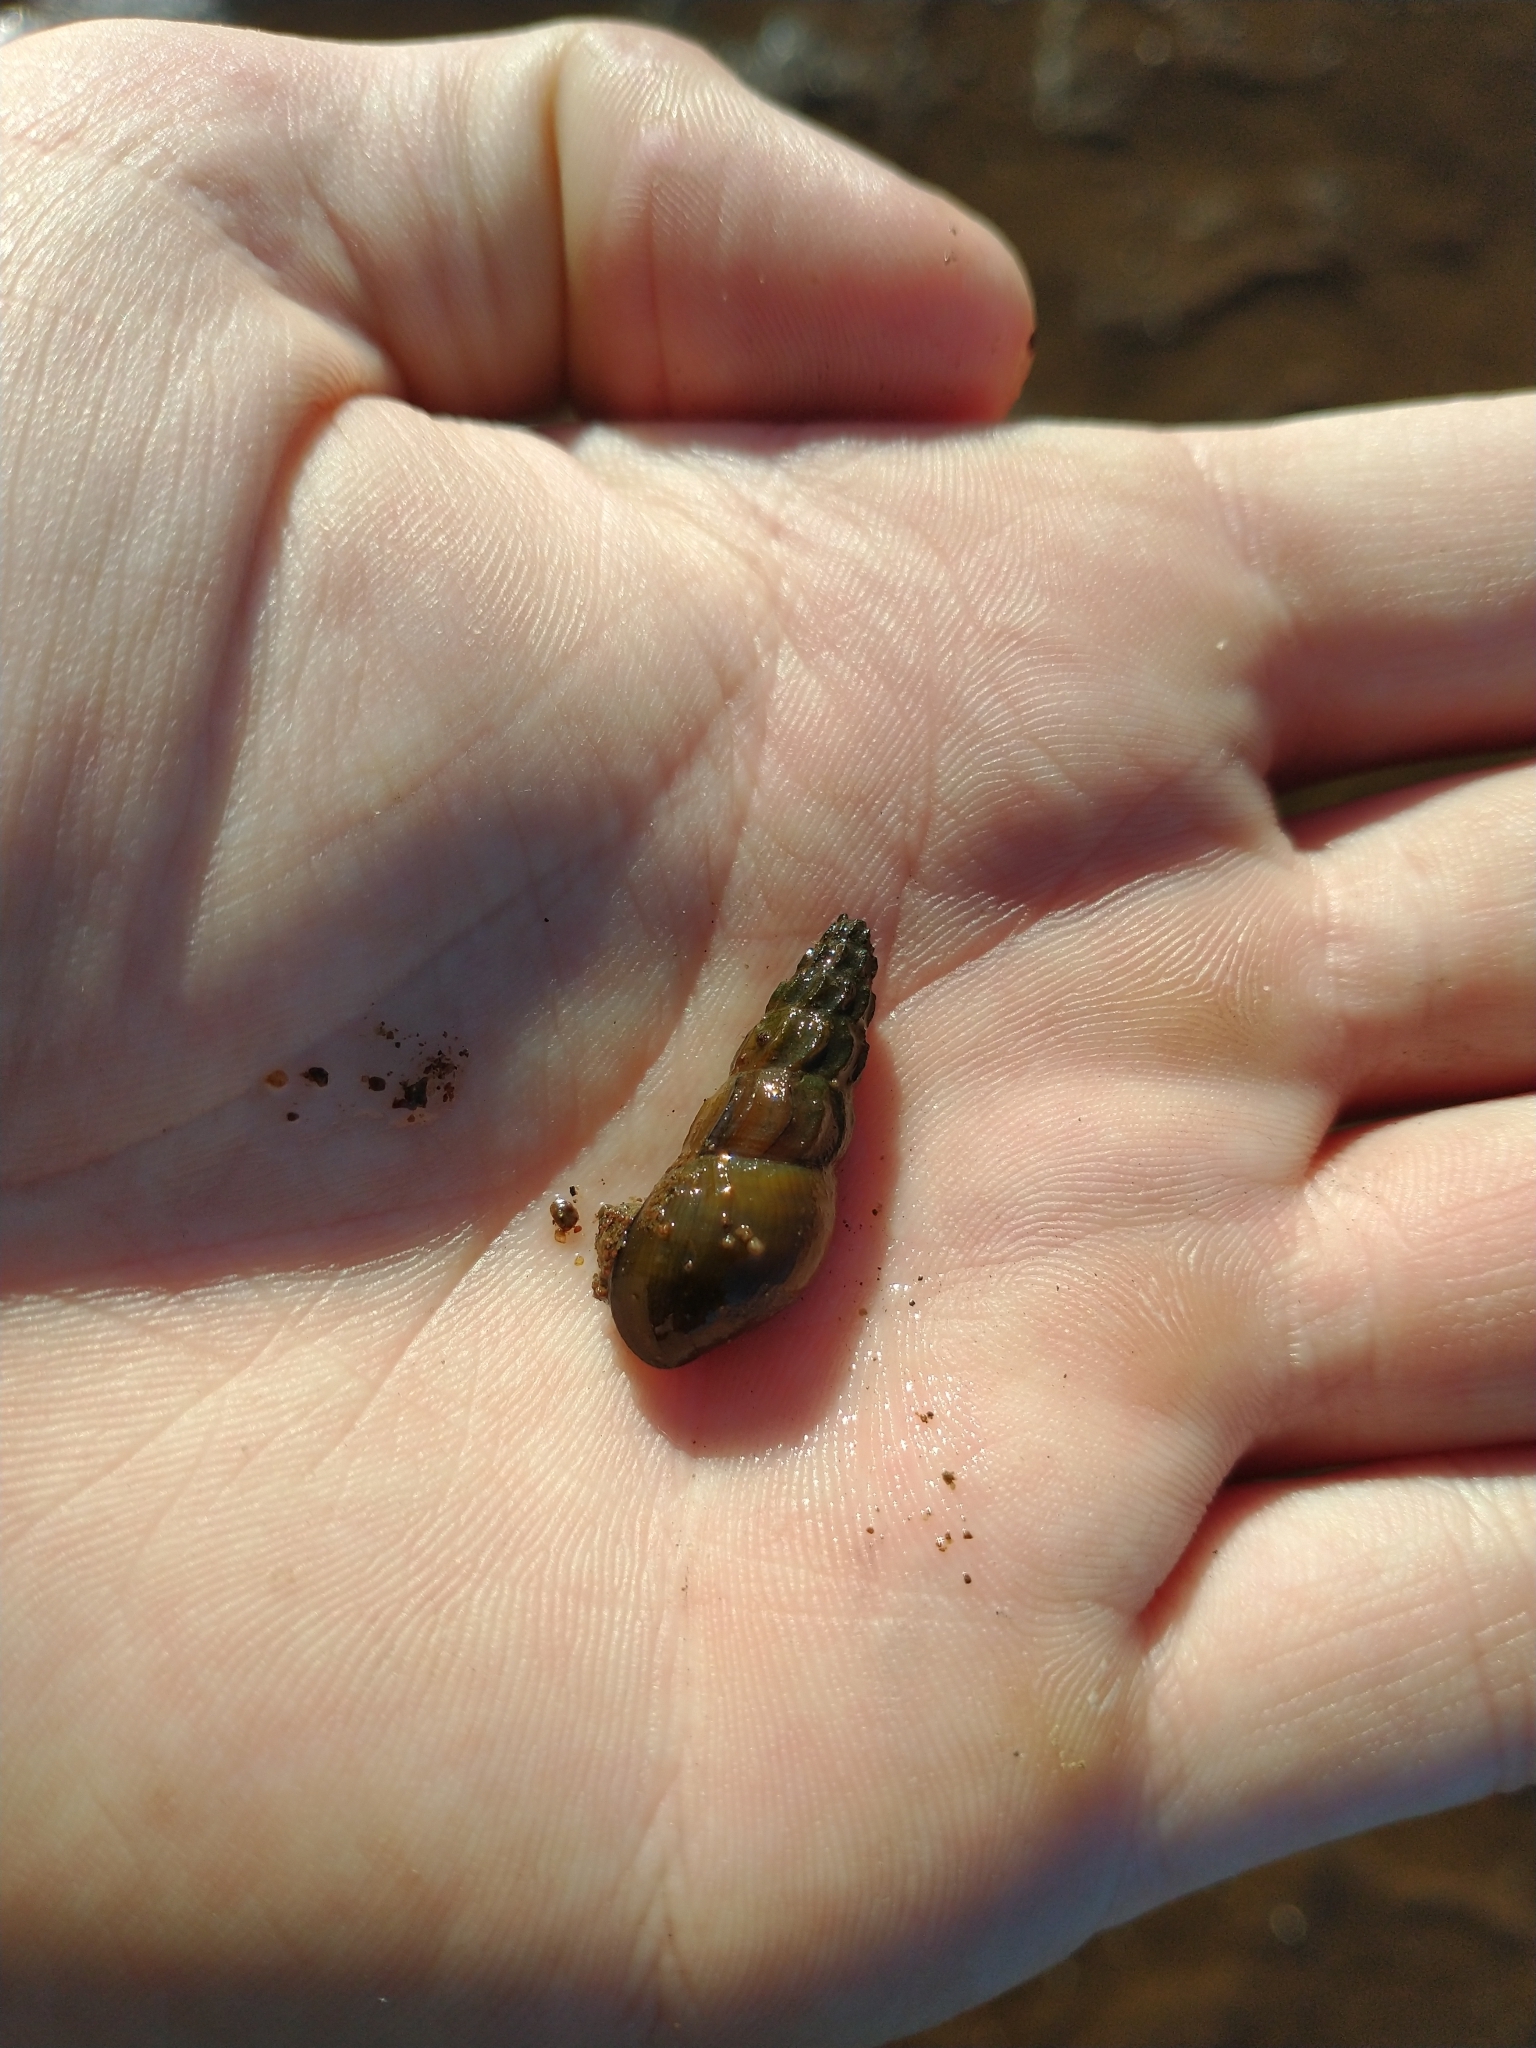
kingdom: Animalia
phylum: Mollusca
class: Gastropoda
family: Semisulcospiridae
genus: Juga
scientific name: Juga plicifera
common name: Pleated juga
